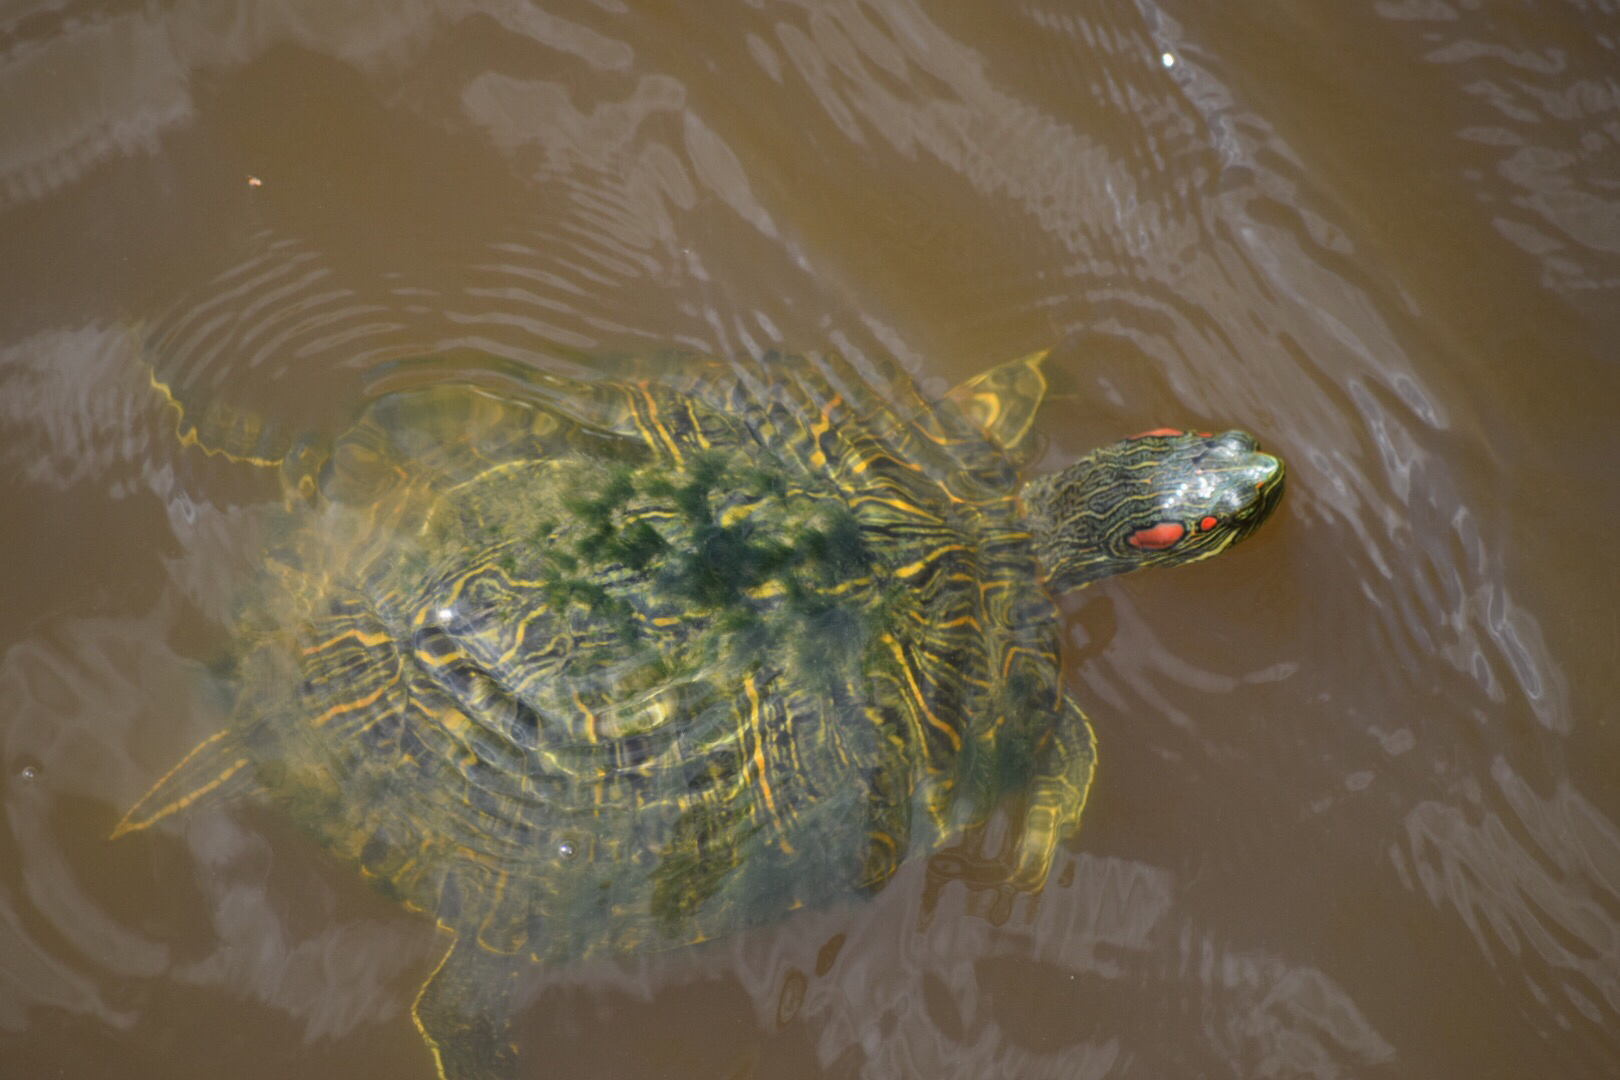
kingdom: Animalia
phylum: Chordata
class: Testudines
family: Emydidae
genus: Trachemys
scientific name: Trachemys scripta
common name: Slider
